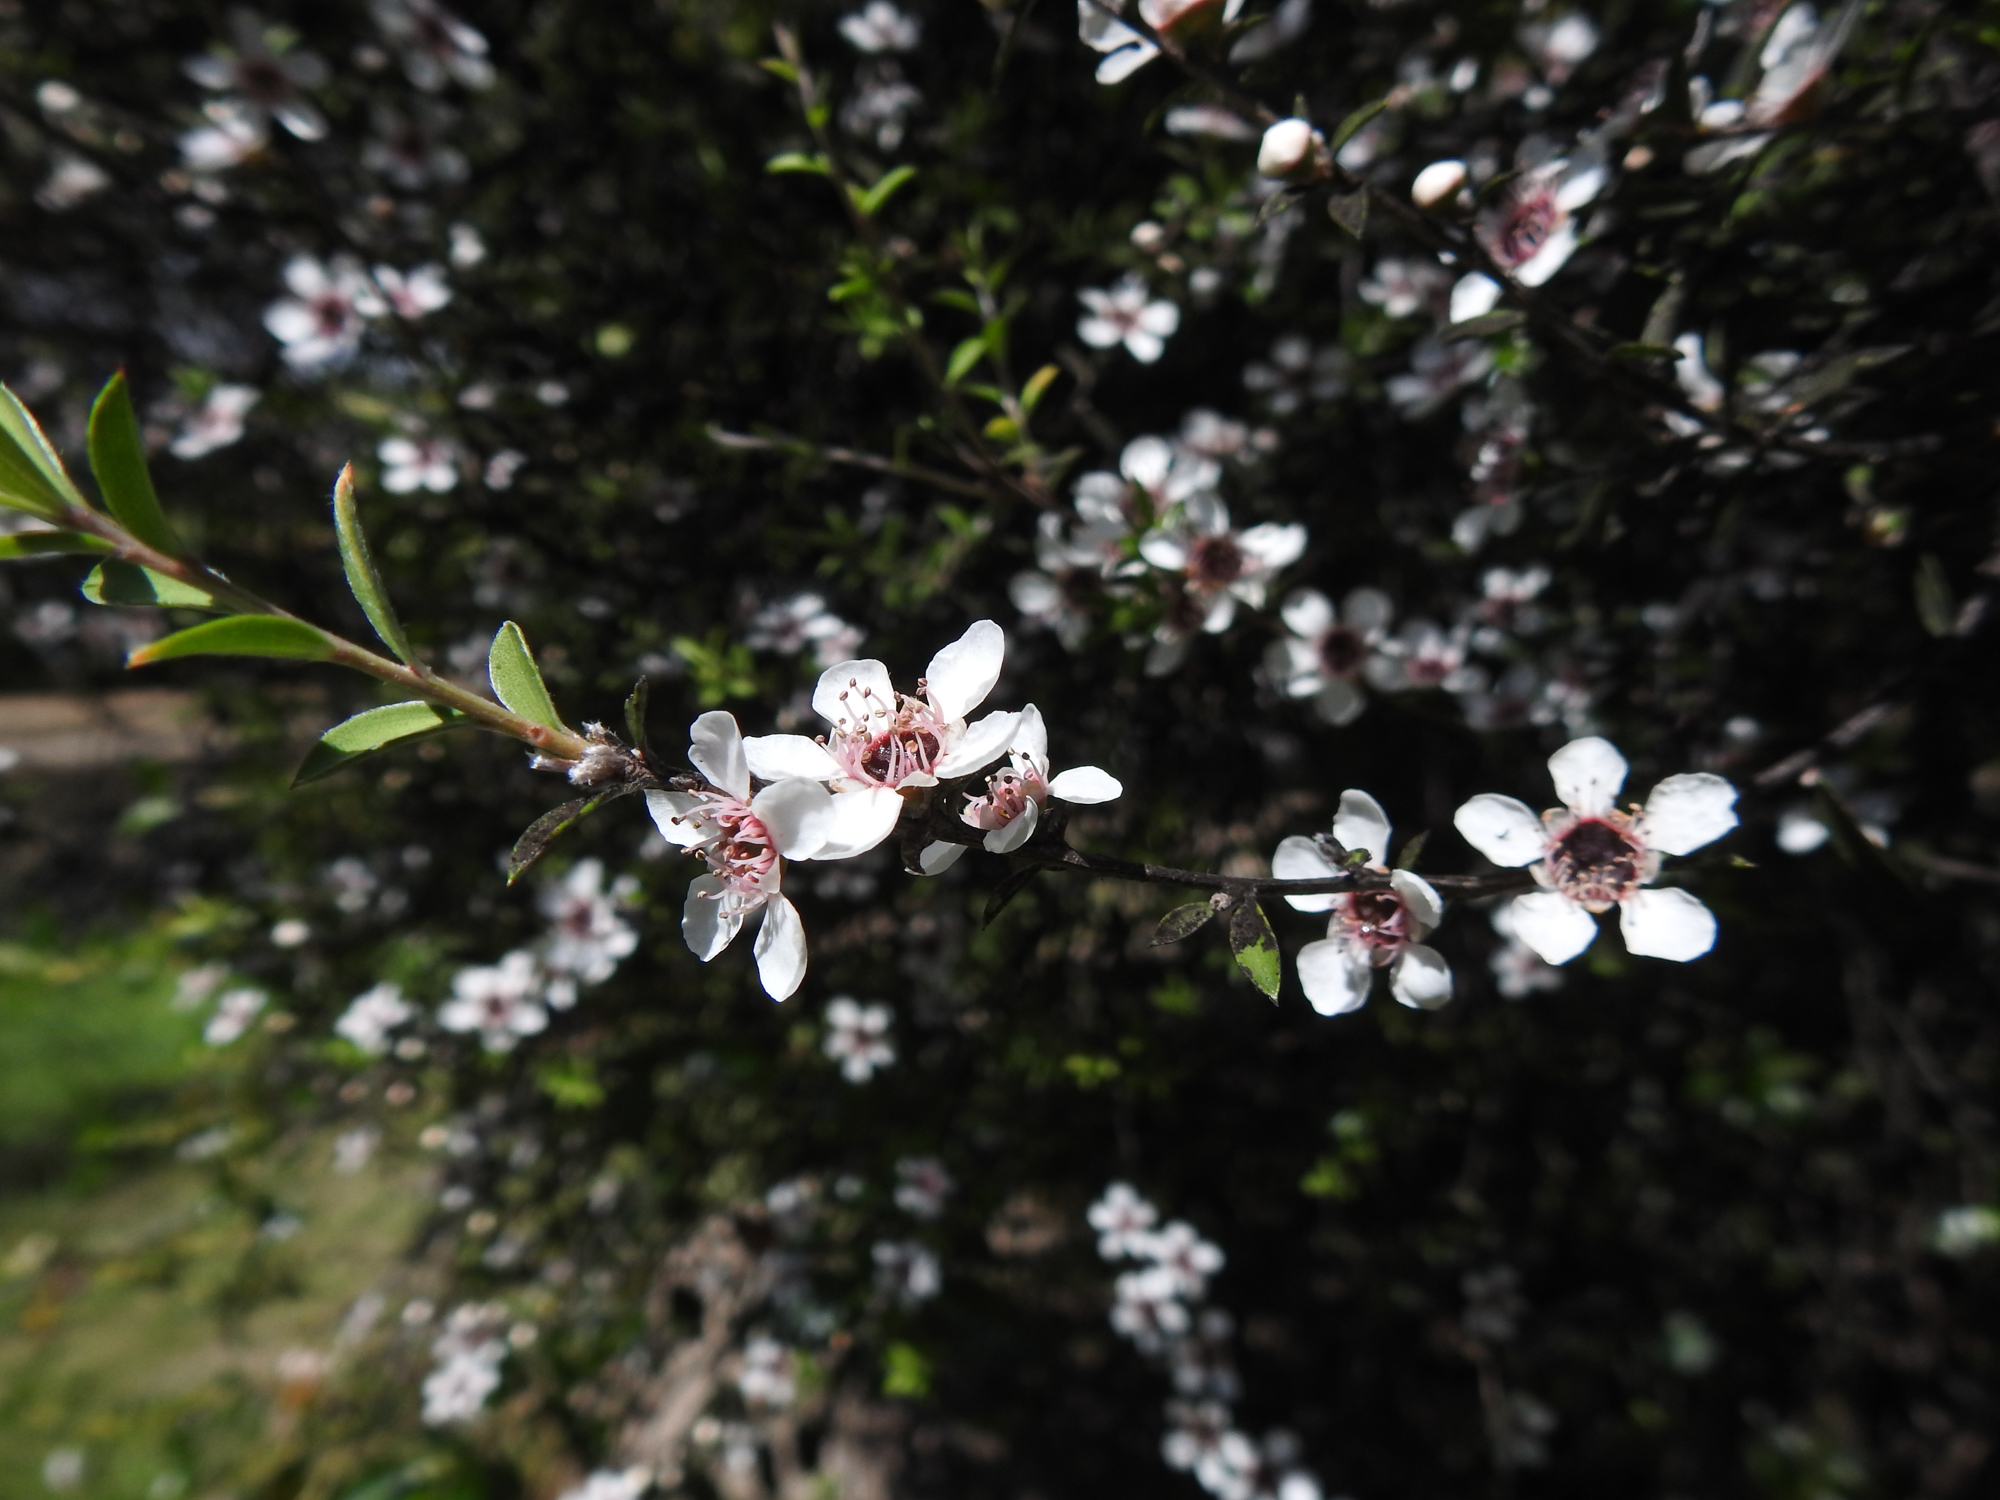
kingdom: Plantae
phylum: Tracheophyta
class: Magnoliopsida
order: Myrtales
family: Myrtaceae
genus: Leptospermum
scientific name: Leptospermum scoparium
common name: Broom tea-tree
